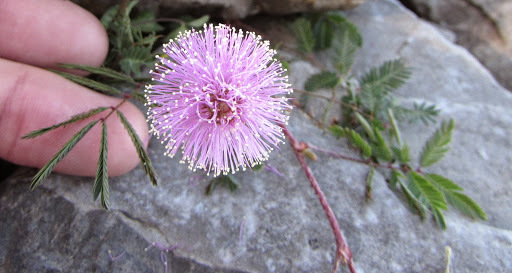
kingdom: Plantae
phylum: Tracheophyta
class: Magnoliopsida
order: Fabales
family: Fabaceae
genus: Mimosa
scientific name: Mimosa strigillosa
